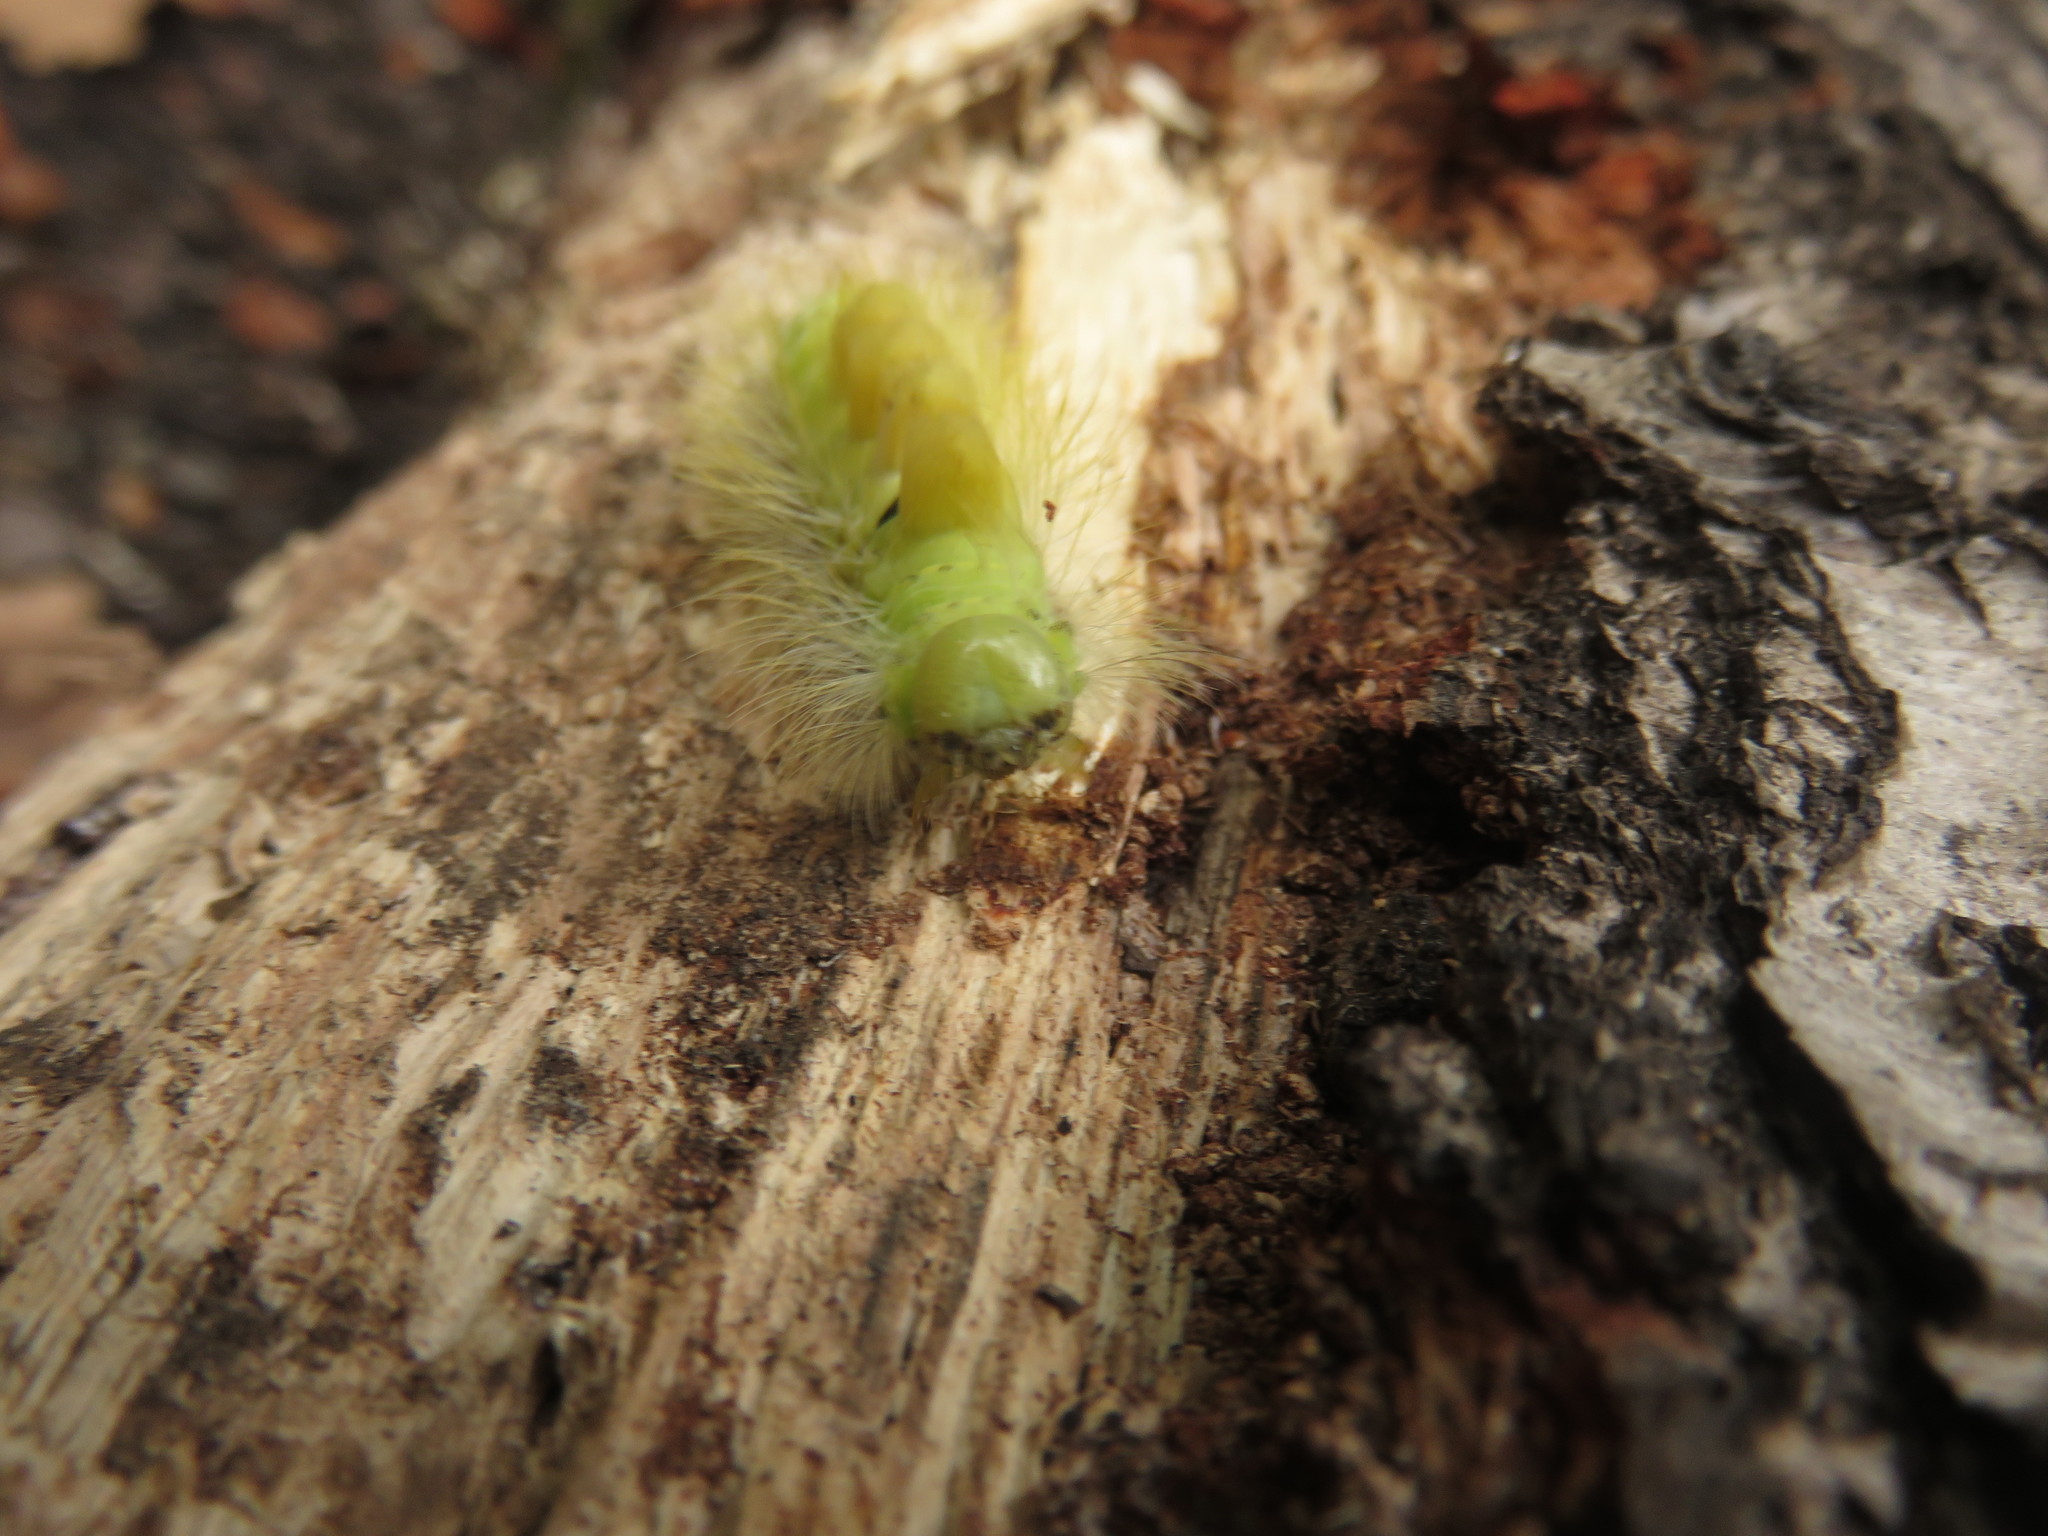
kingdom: Animalia
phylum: Arthropoda
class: Insecta
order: Lepidoptera
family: Erebidae
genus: Calliteara
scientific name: Calliteara pudibunda
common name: Pale tussock
